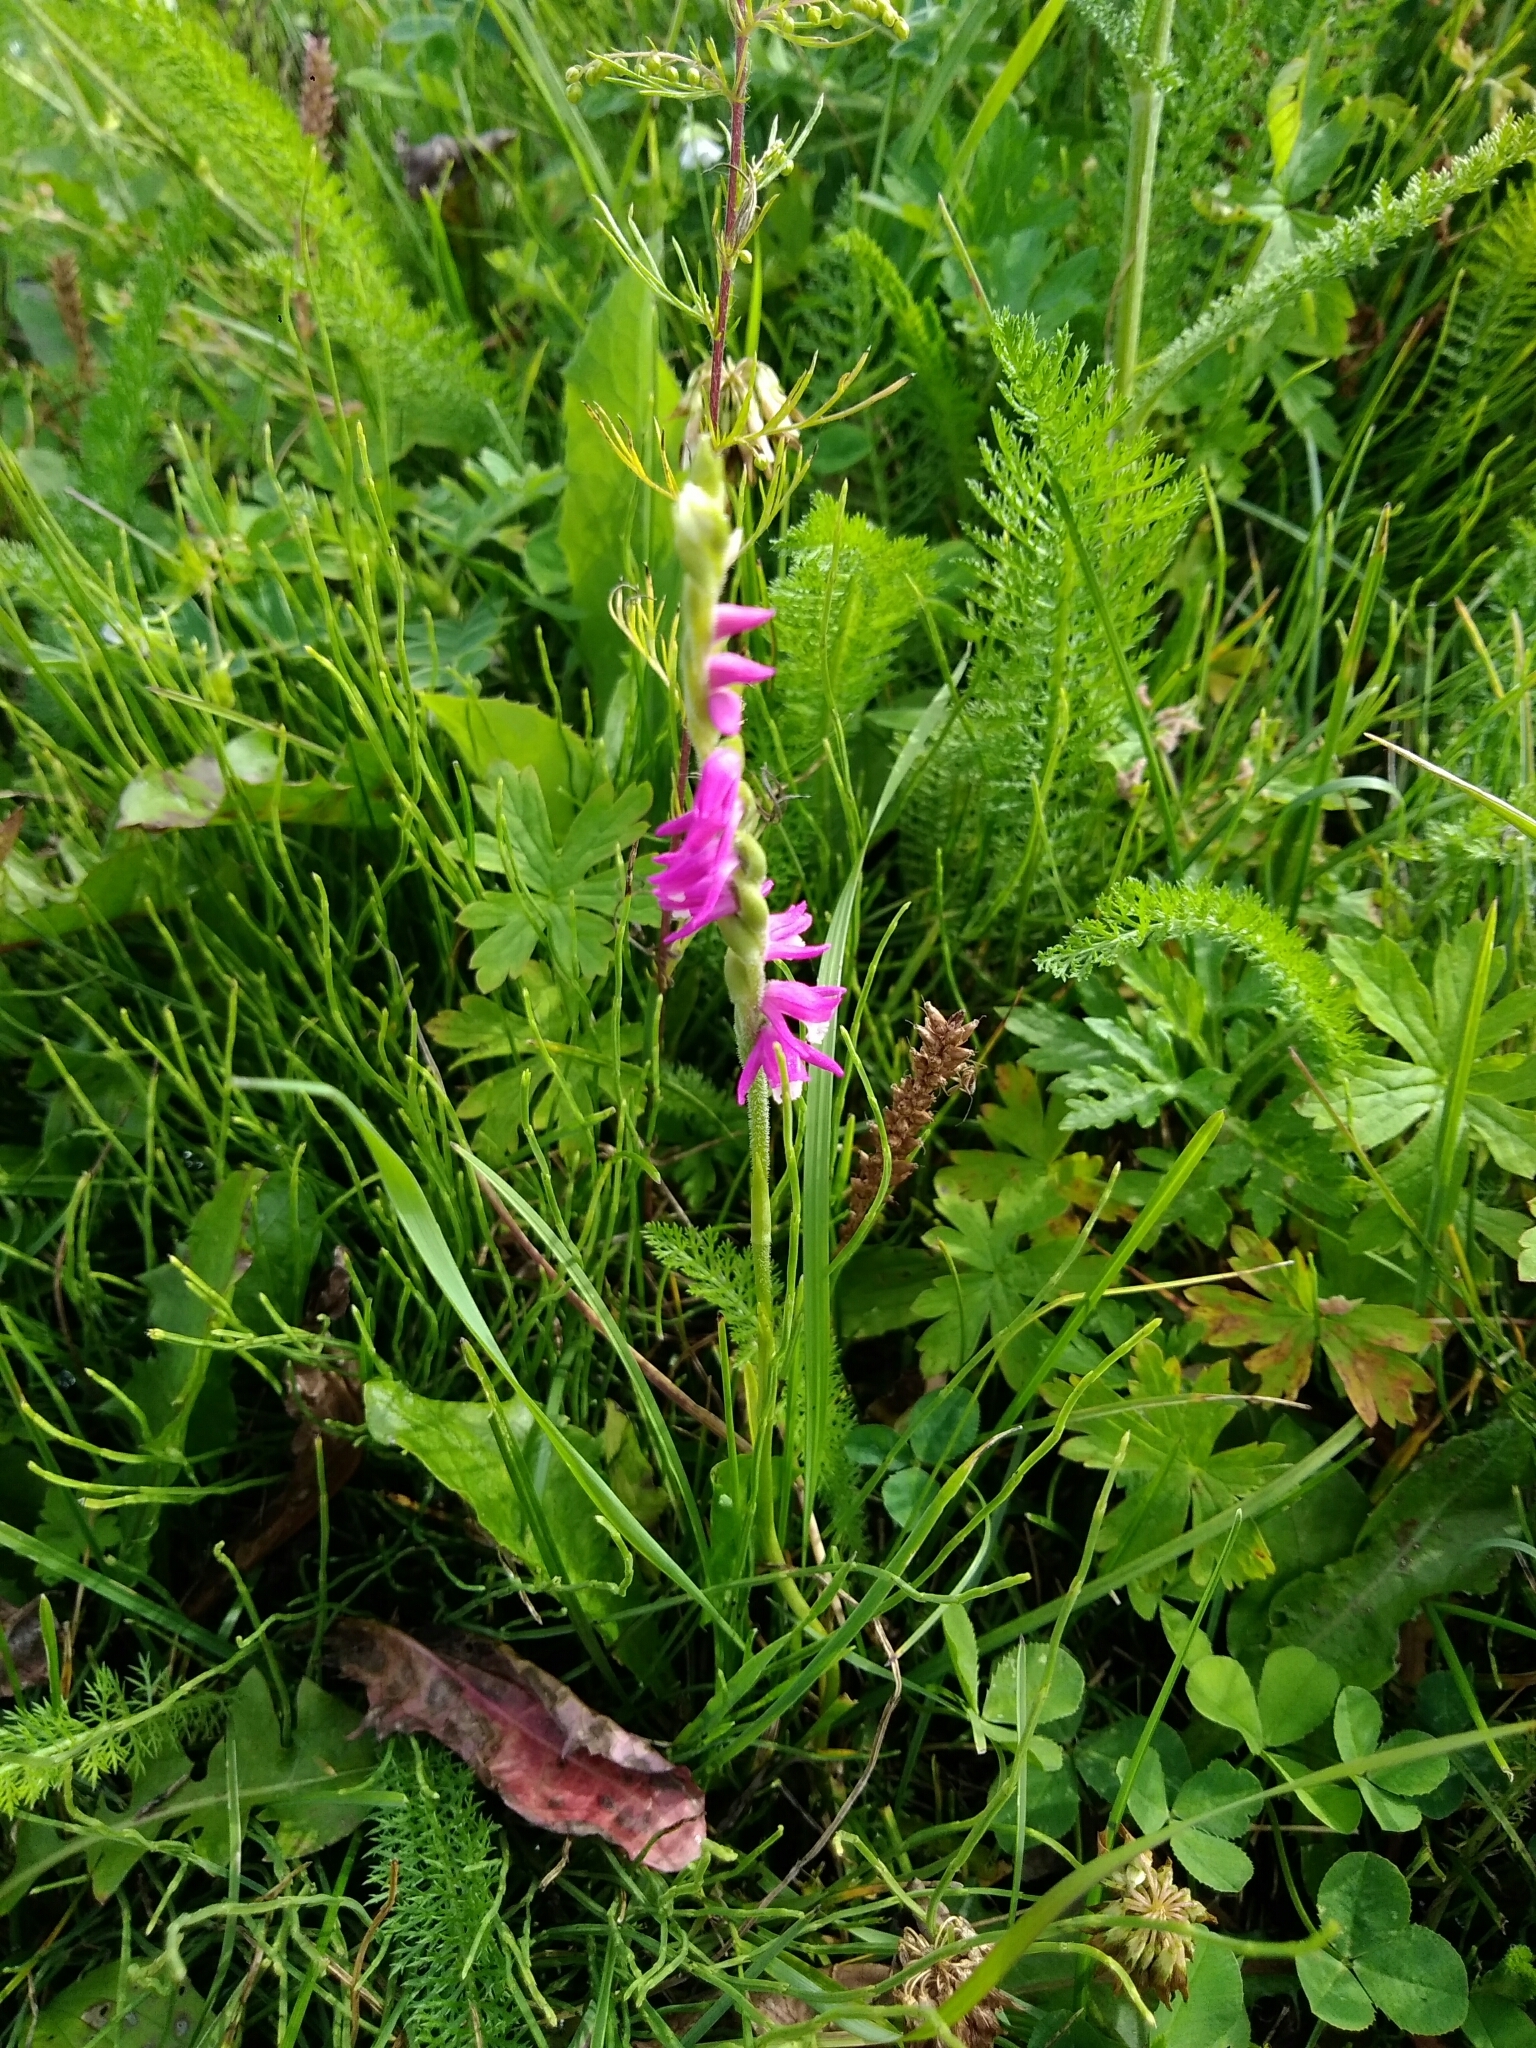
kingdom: Plantae
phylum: Tracheophyta
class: Liliopsida
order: Asparagales
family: Orchidaceae
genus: Spiranthes
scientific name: Spiranthes australis
